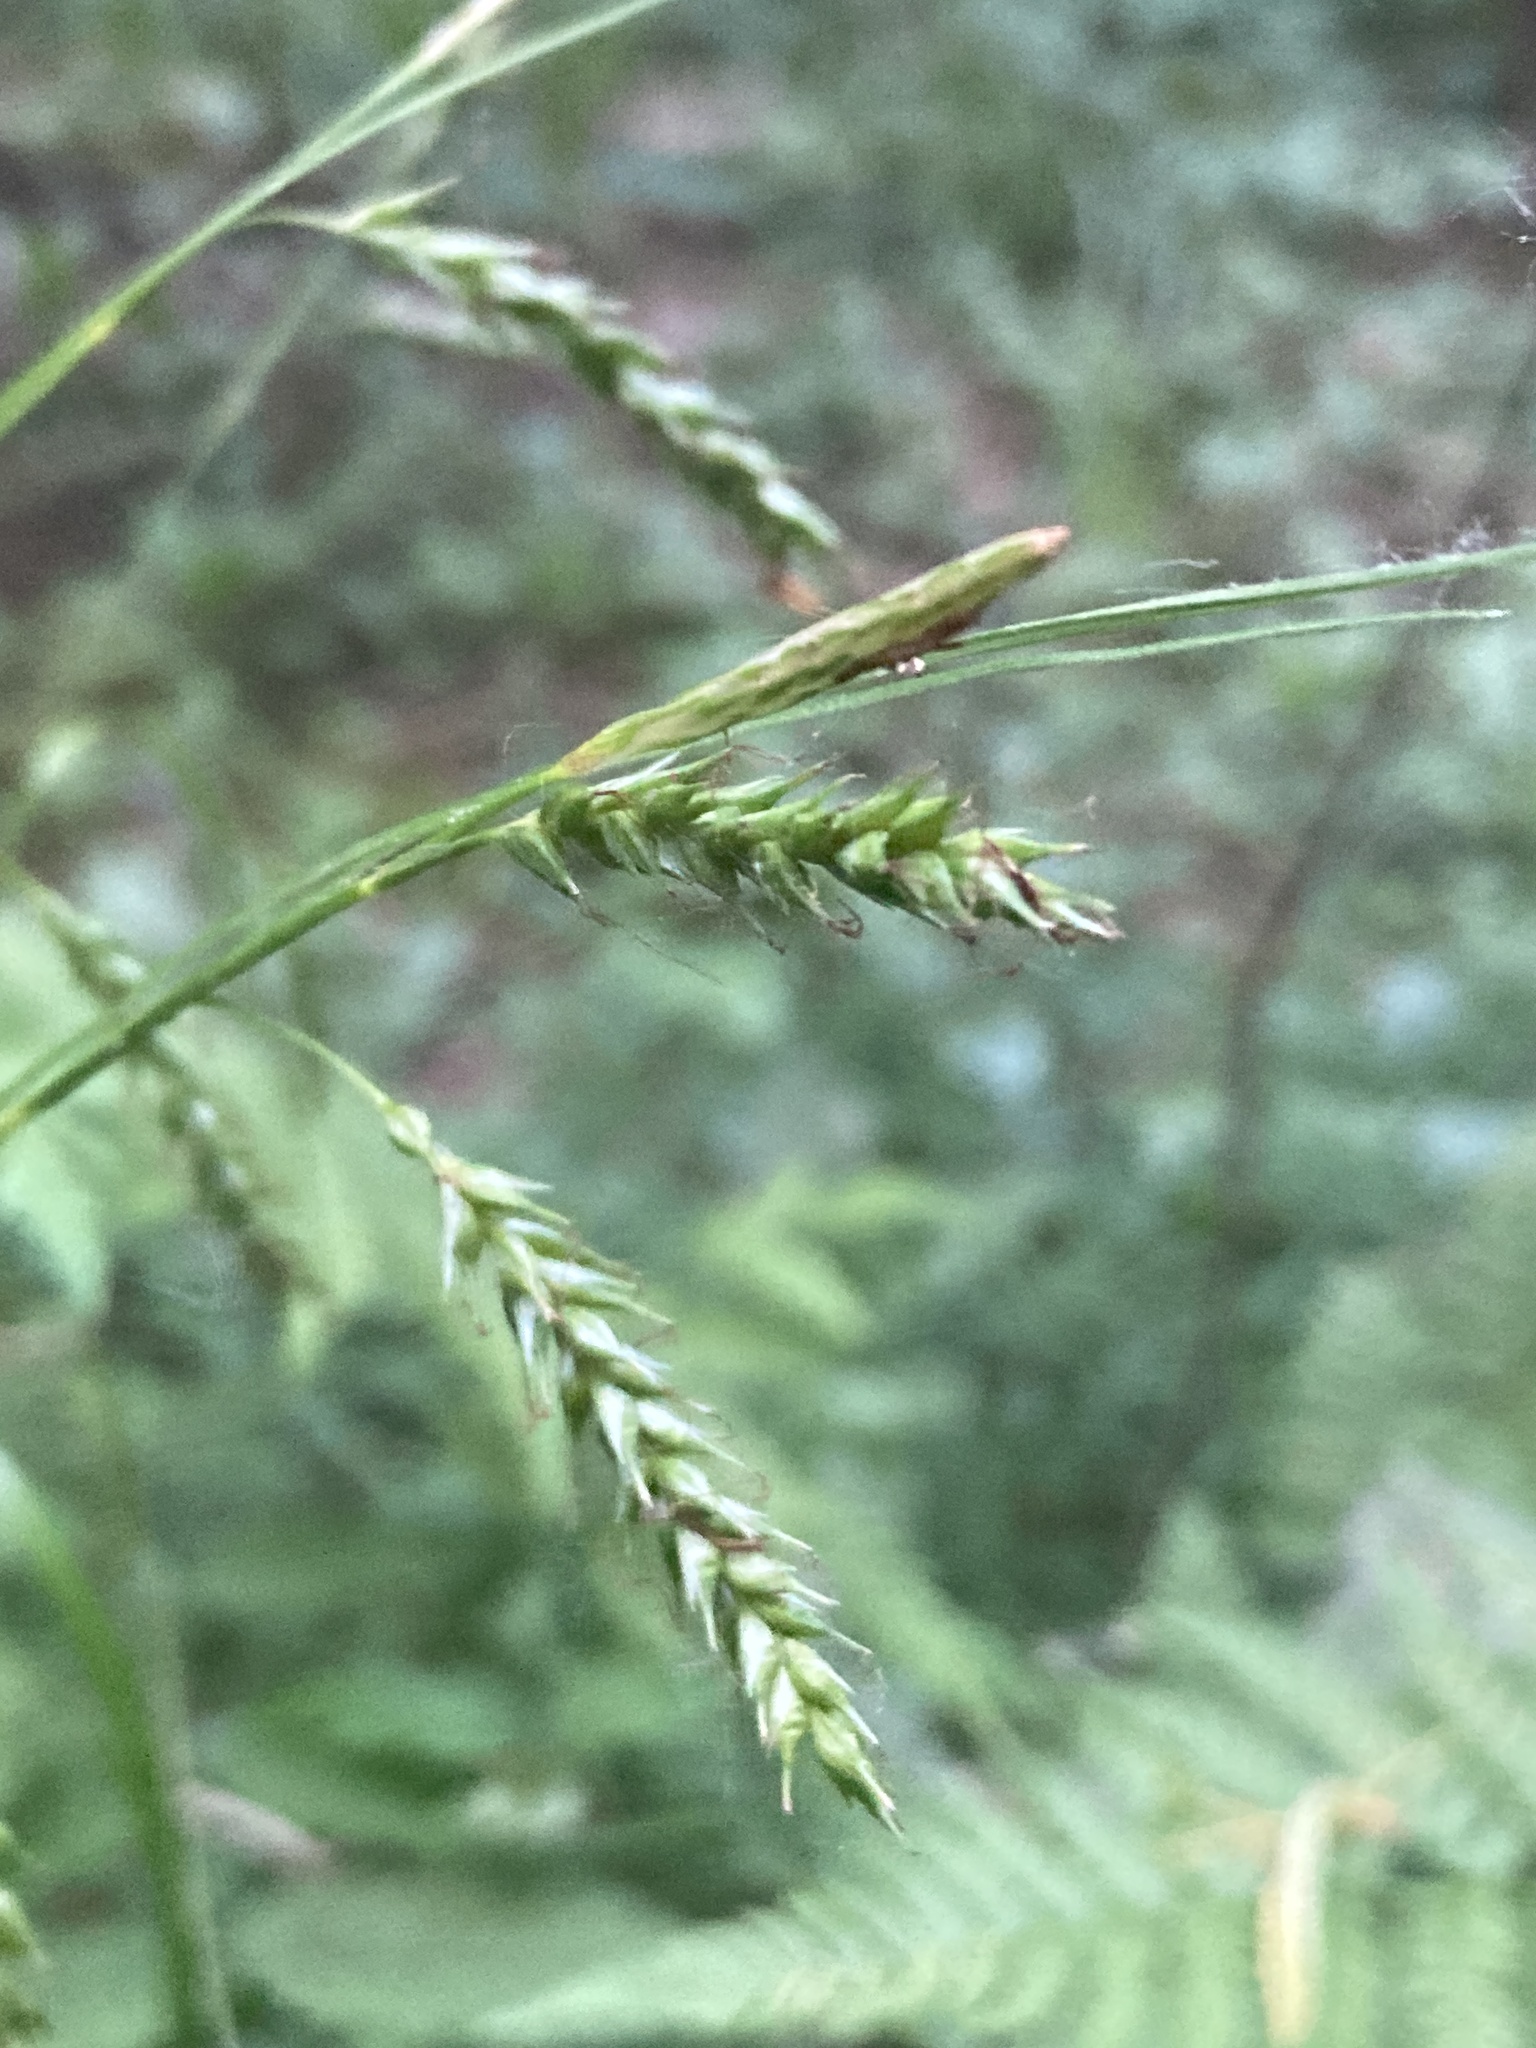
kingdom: Plantae
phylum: Tracheophyta
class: Liliopsida
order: Poales
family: Cyperaceae
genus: Carex
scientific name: Carex sylvatica
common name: Wood-sedge
